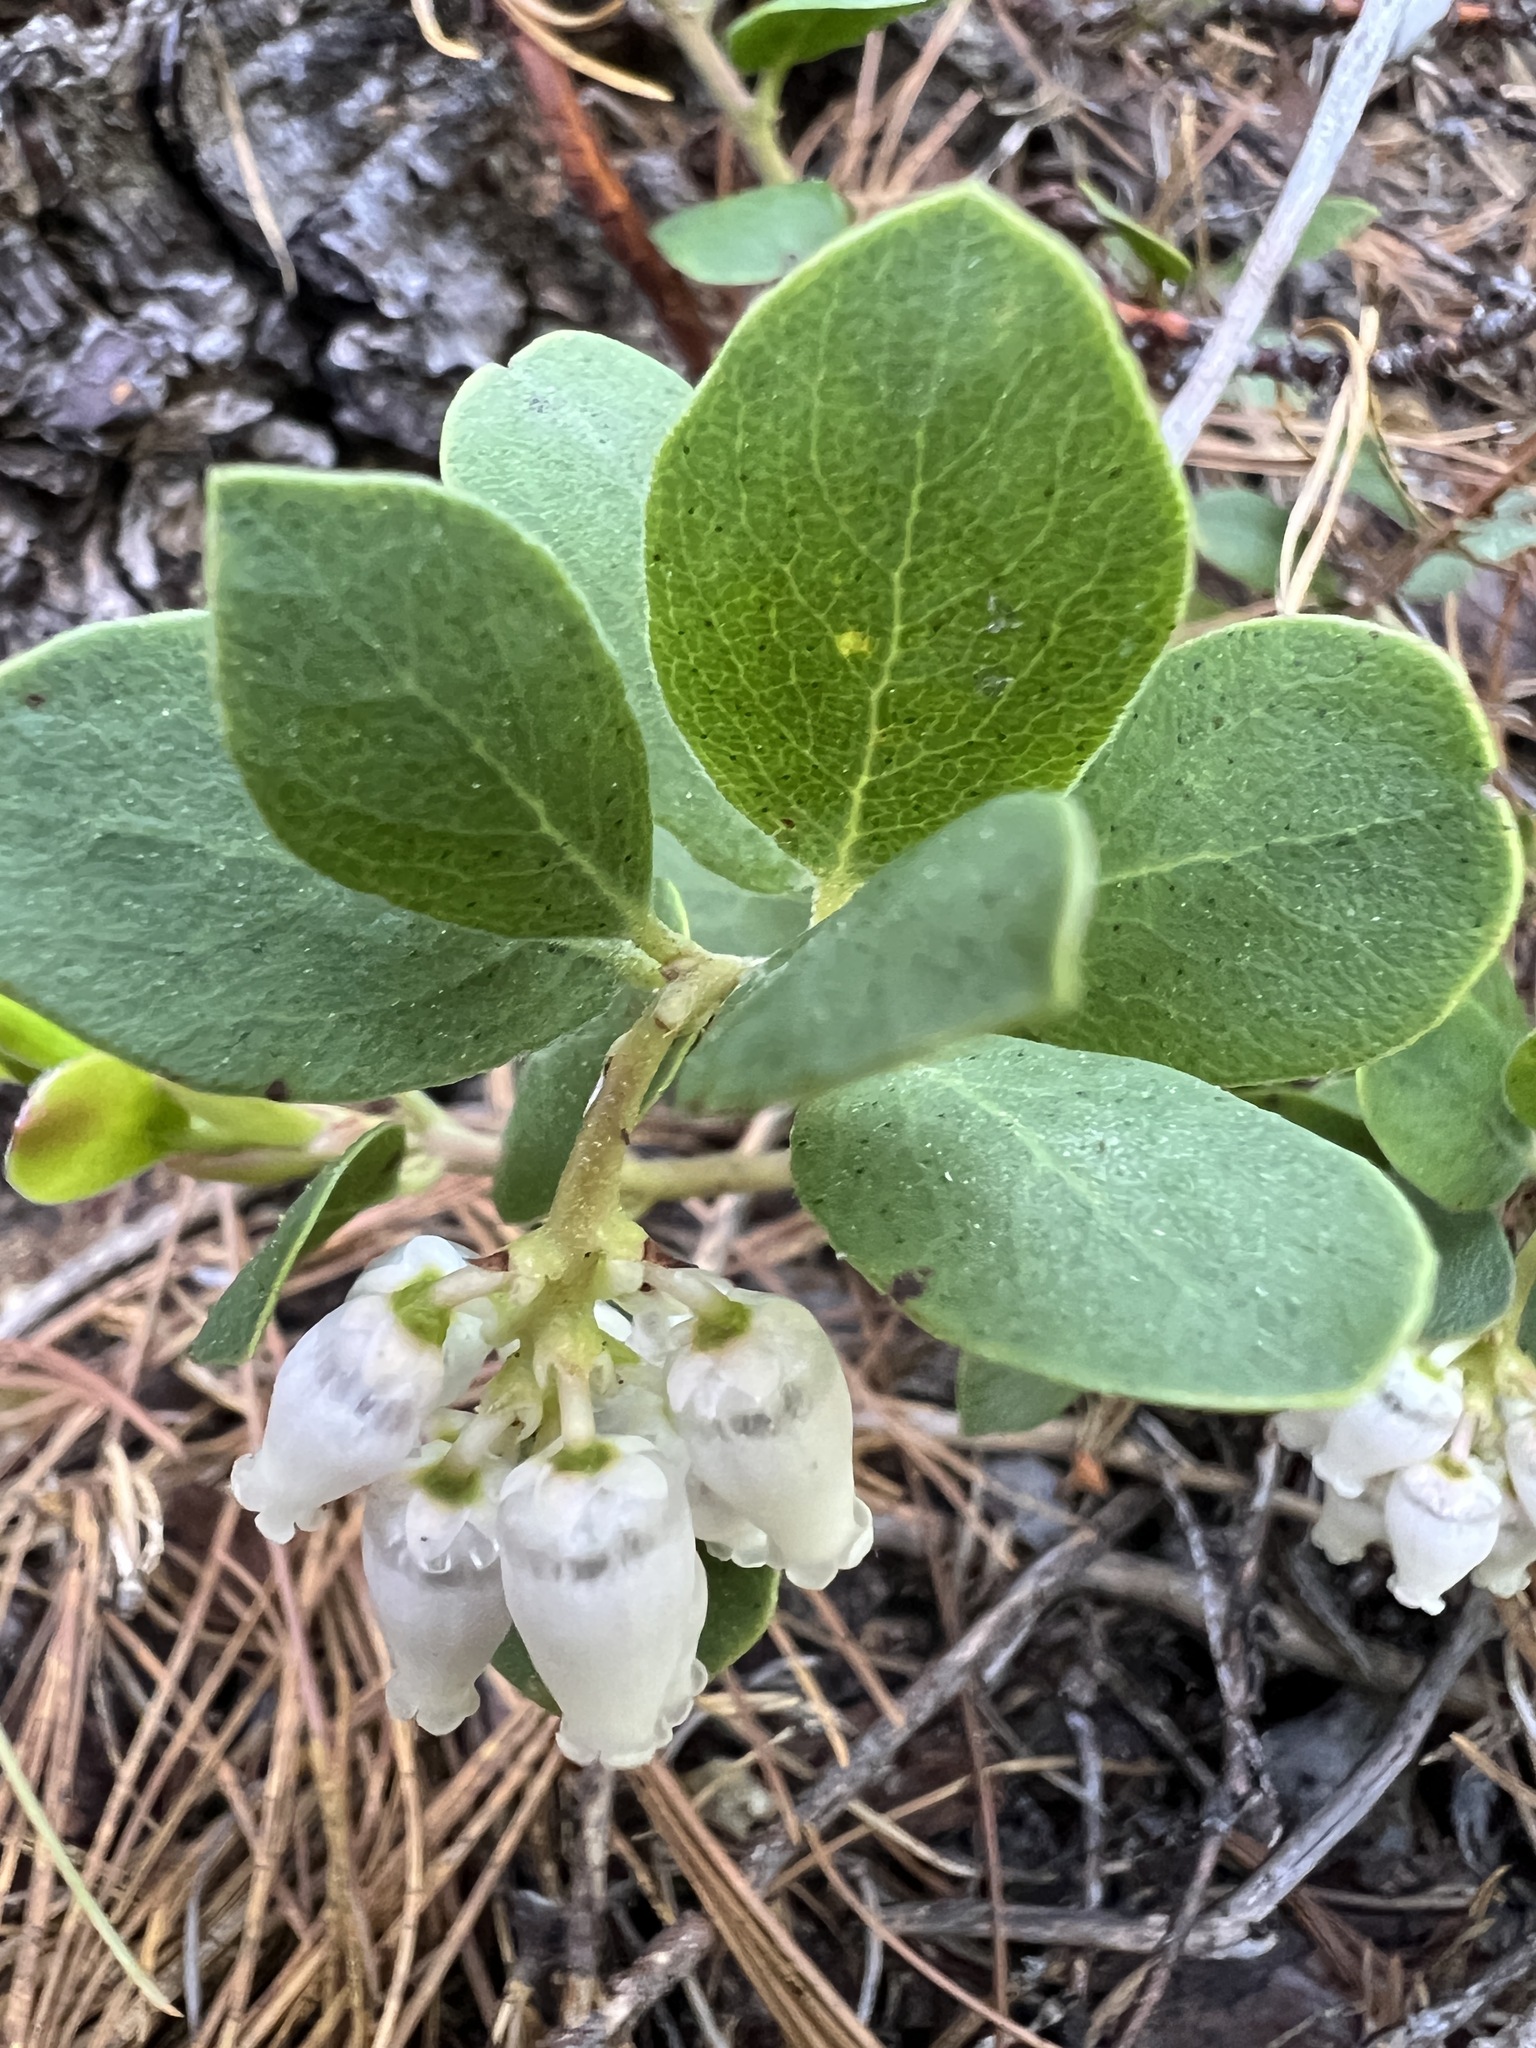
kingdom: Plantae
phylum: Tracheophyta
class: Magnoliopsida
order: Ericales
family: Ericaceae
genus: Arctostaphylos
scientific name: Arctostaphylos nevadensis
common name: Pinemat manzanita
